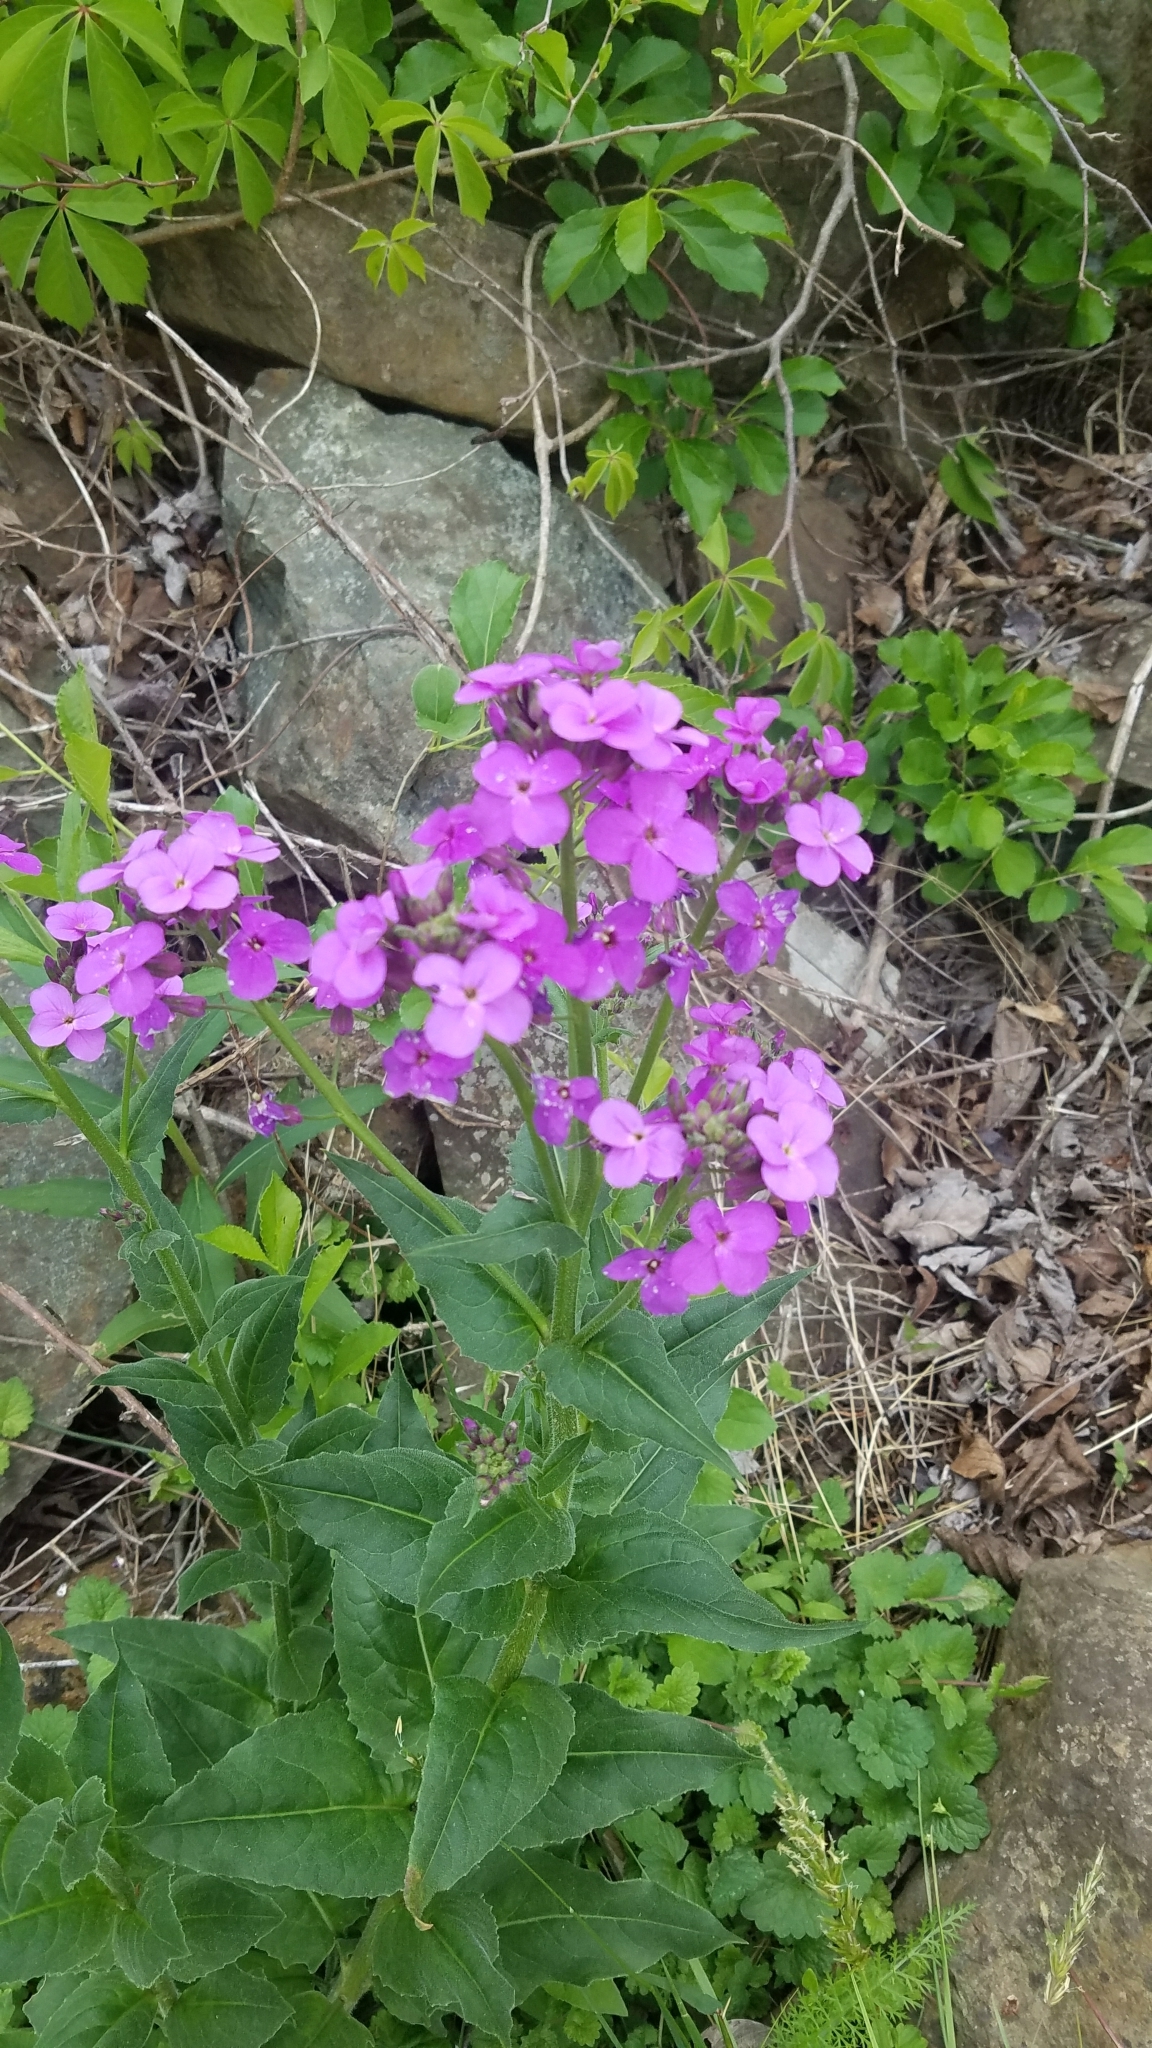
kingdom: Plantae
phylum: Tracheophyta
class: Magnoliopsida
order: Brassicales
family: Brassicaceae
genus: Hesperis
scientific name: Hesperis matronalis
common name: Dame's-violet
